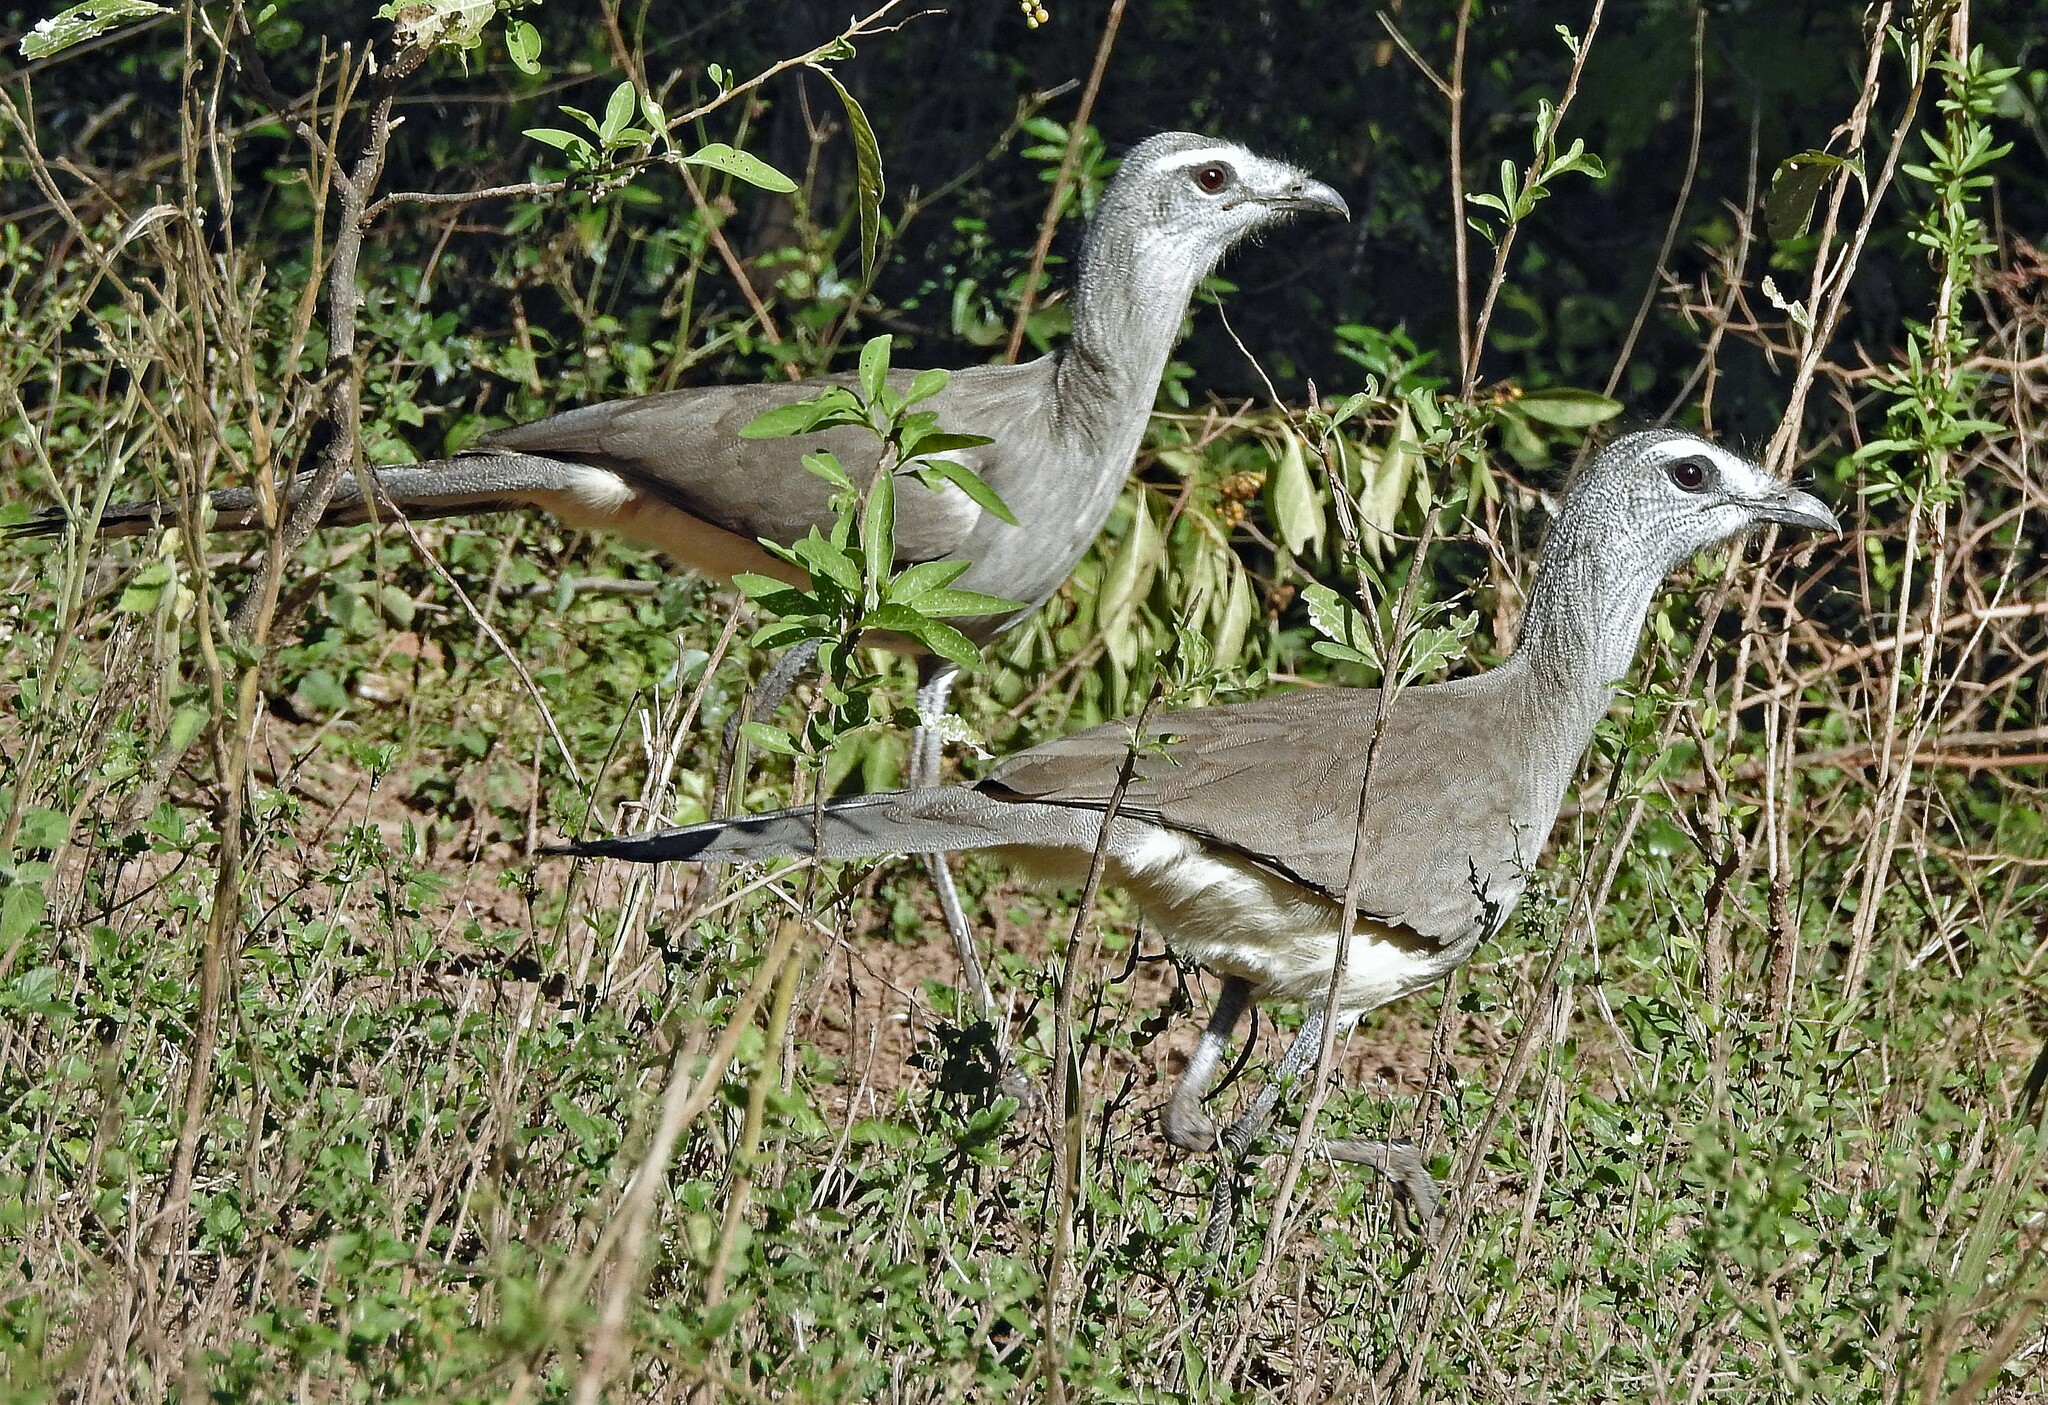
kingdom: Animalia
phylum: Chordata
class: Aves
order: Cariamiformes
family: Cariamidae
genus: Chunga
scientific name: Chunga burmeisteri
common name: Black-legged seriema
